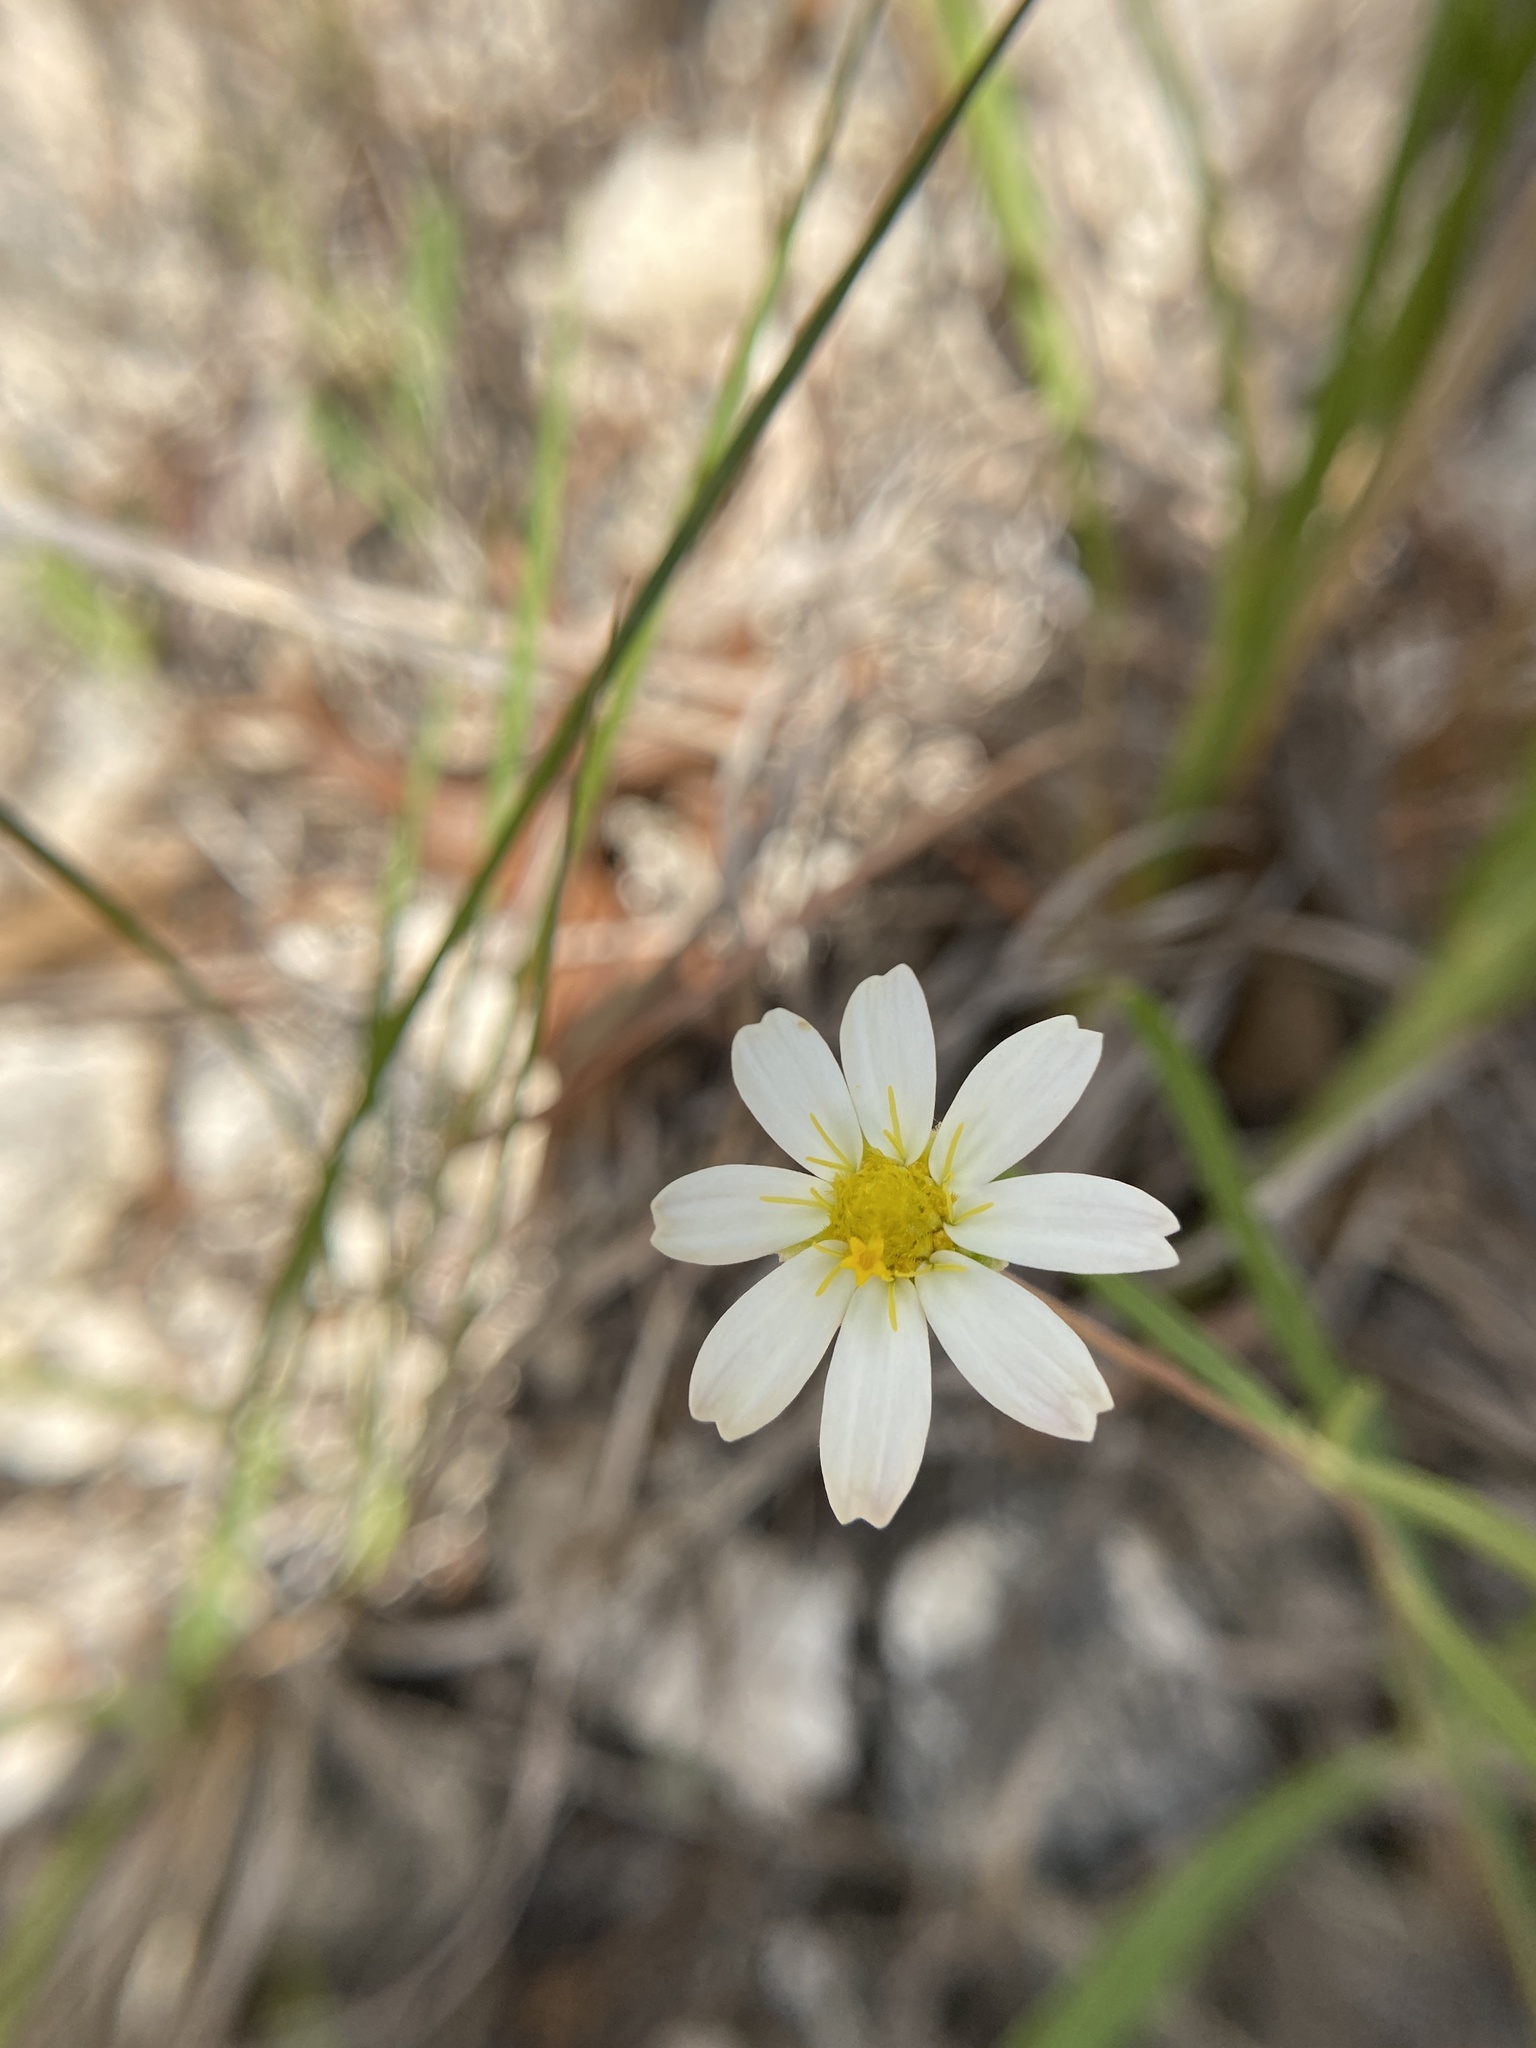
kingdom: Plantae
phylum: Tracheophyta
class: Magnoliopsida
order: Asterales
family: Asteraceae
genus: Melampodium
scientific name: Melampodium leucanthum
